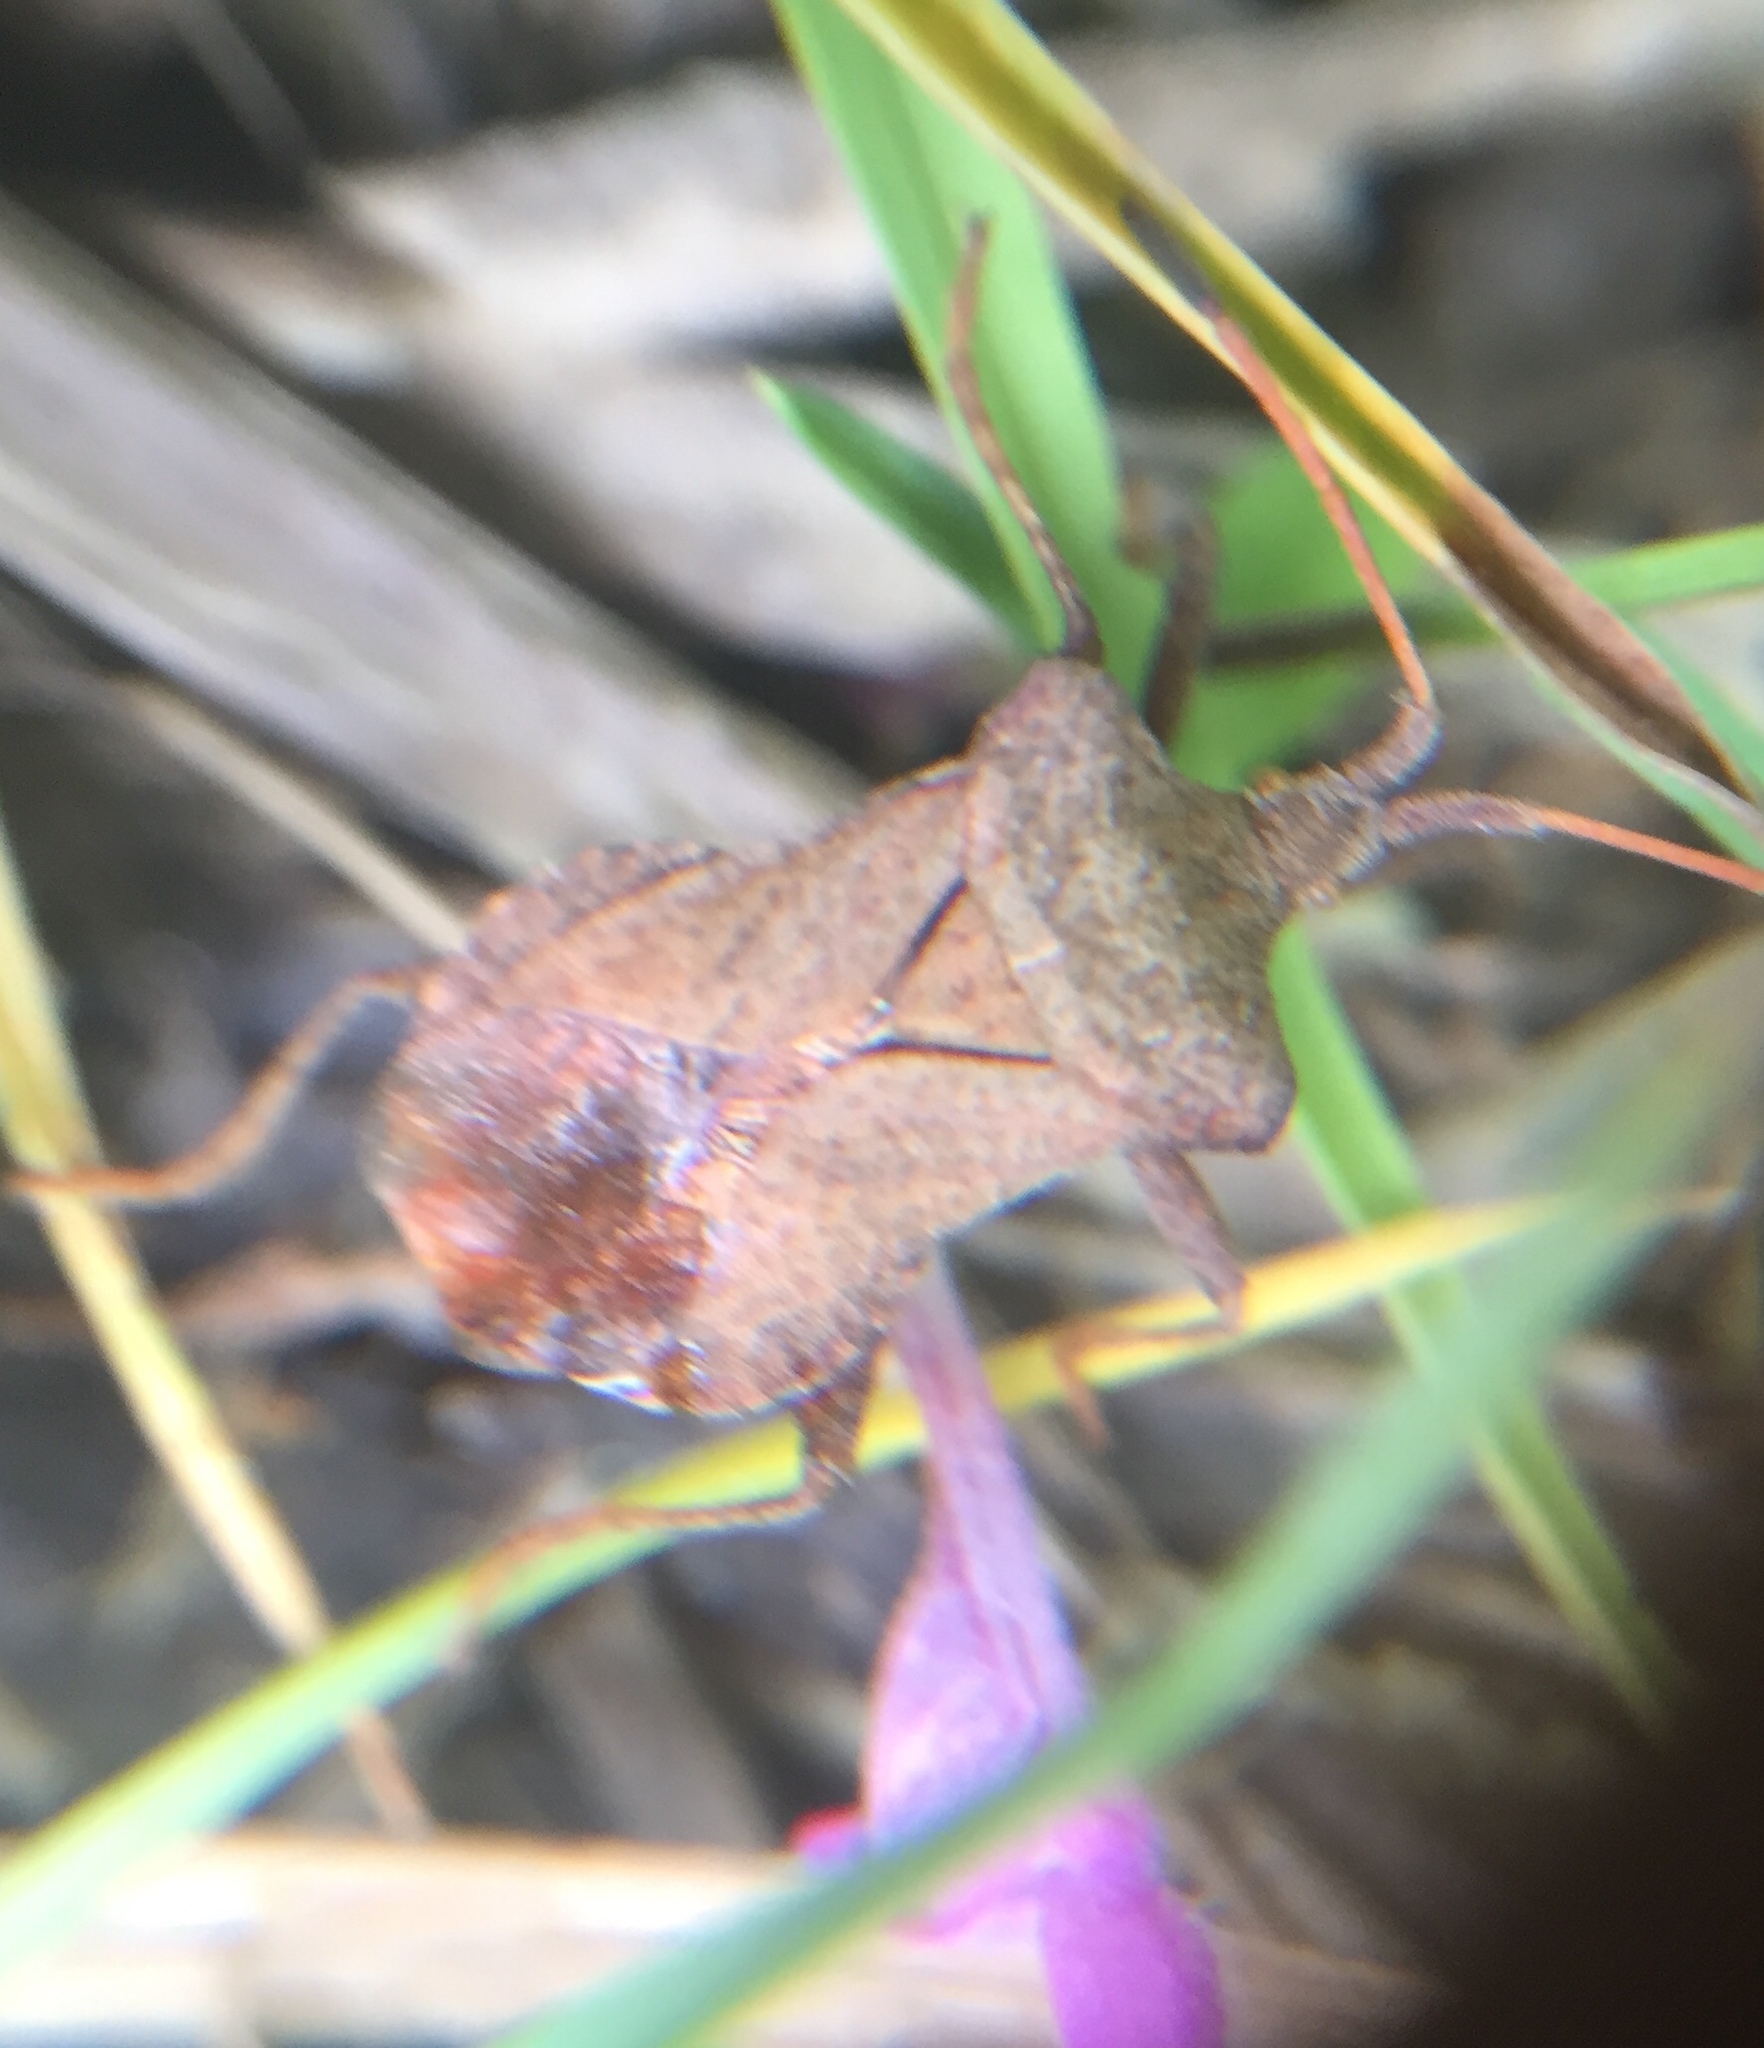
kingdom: Animalia
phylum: Arthropoda
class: Insecta
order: Hemiptera
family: Coreidae
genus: Coreus
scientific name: Coreus marginatus
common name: Dock bug
